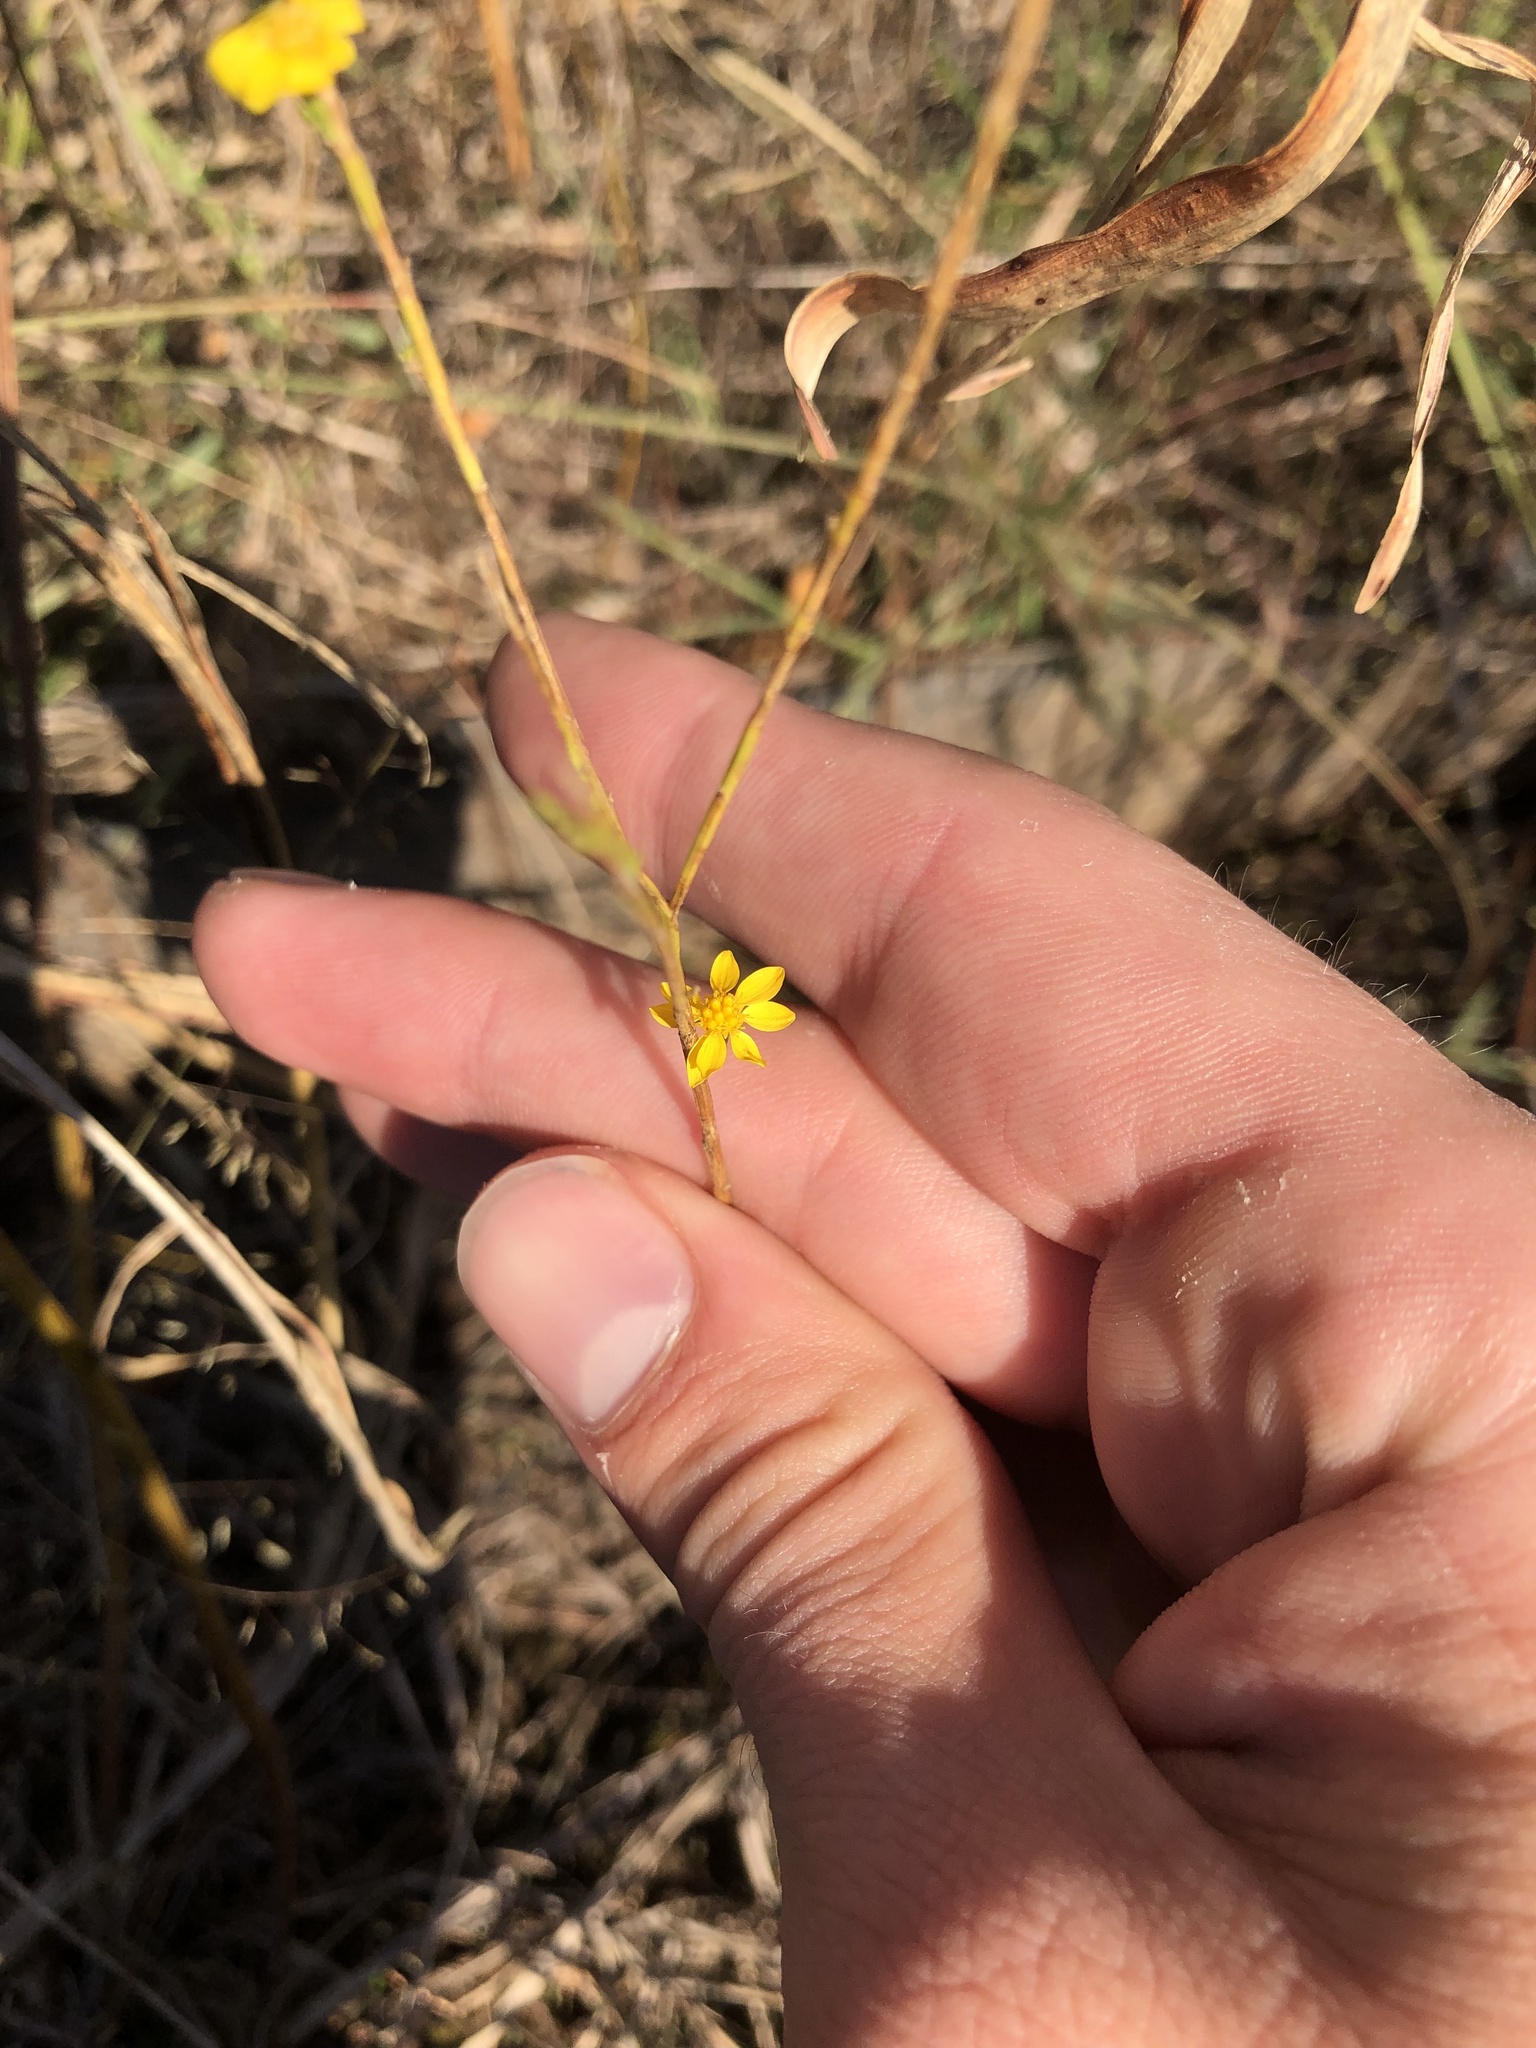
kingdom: Plantae
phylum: Tracheophyta
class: Magnoliopsida
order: Asterales
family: Asteraceae
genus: Amphiachyris
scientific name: Amphiachyris dracunculoides
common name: Broomweed
